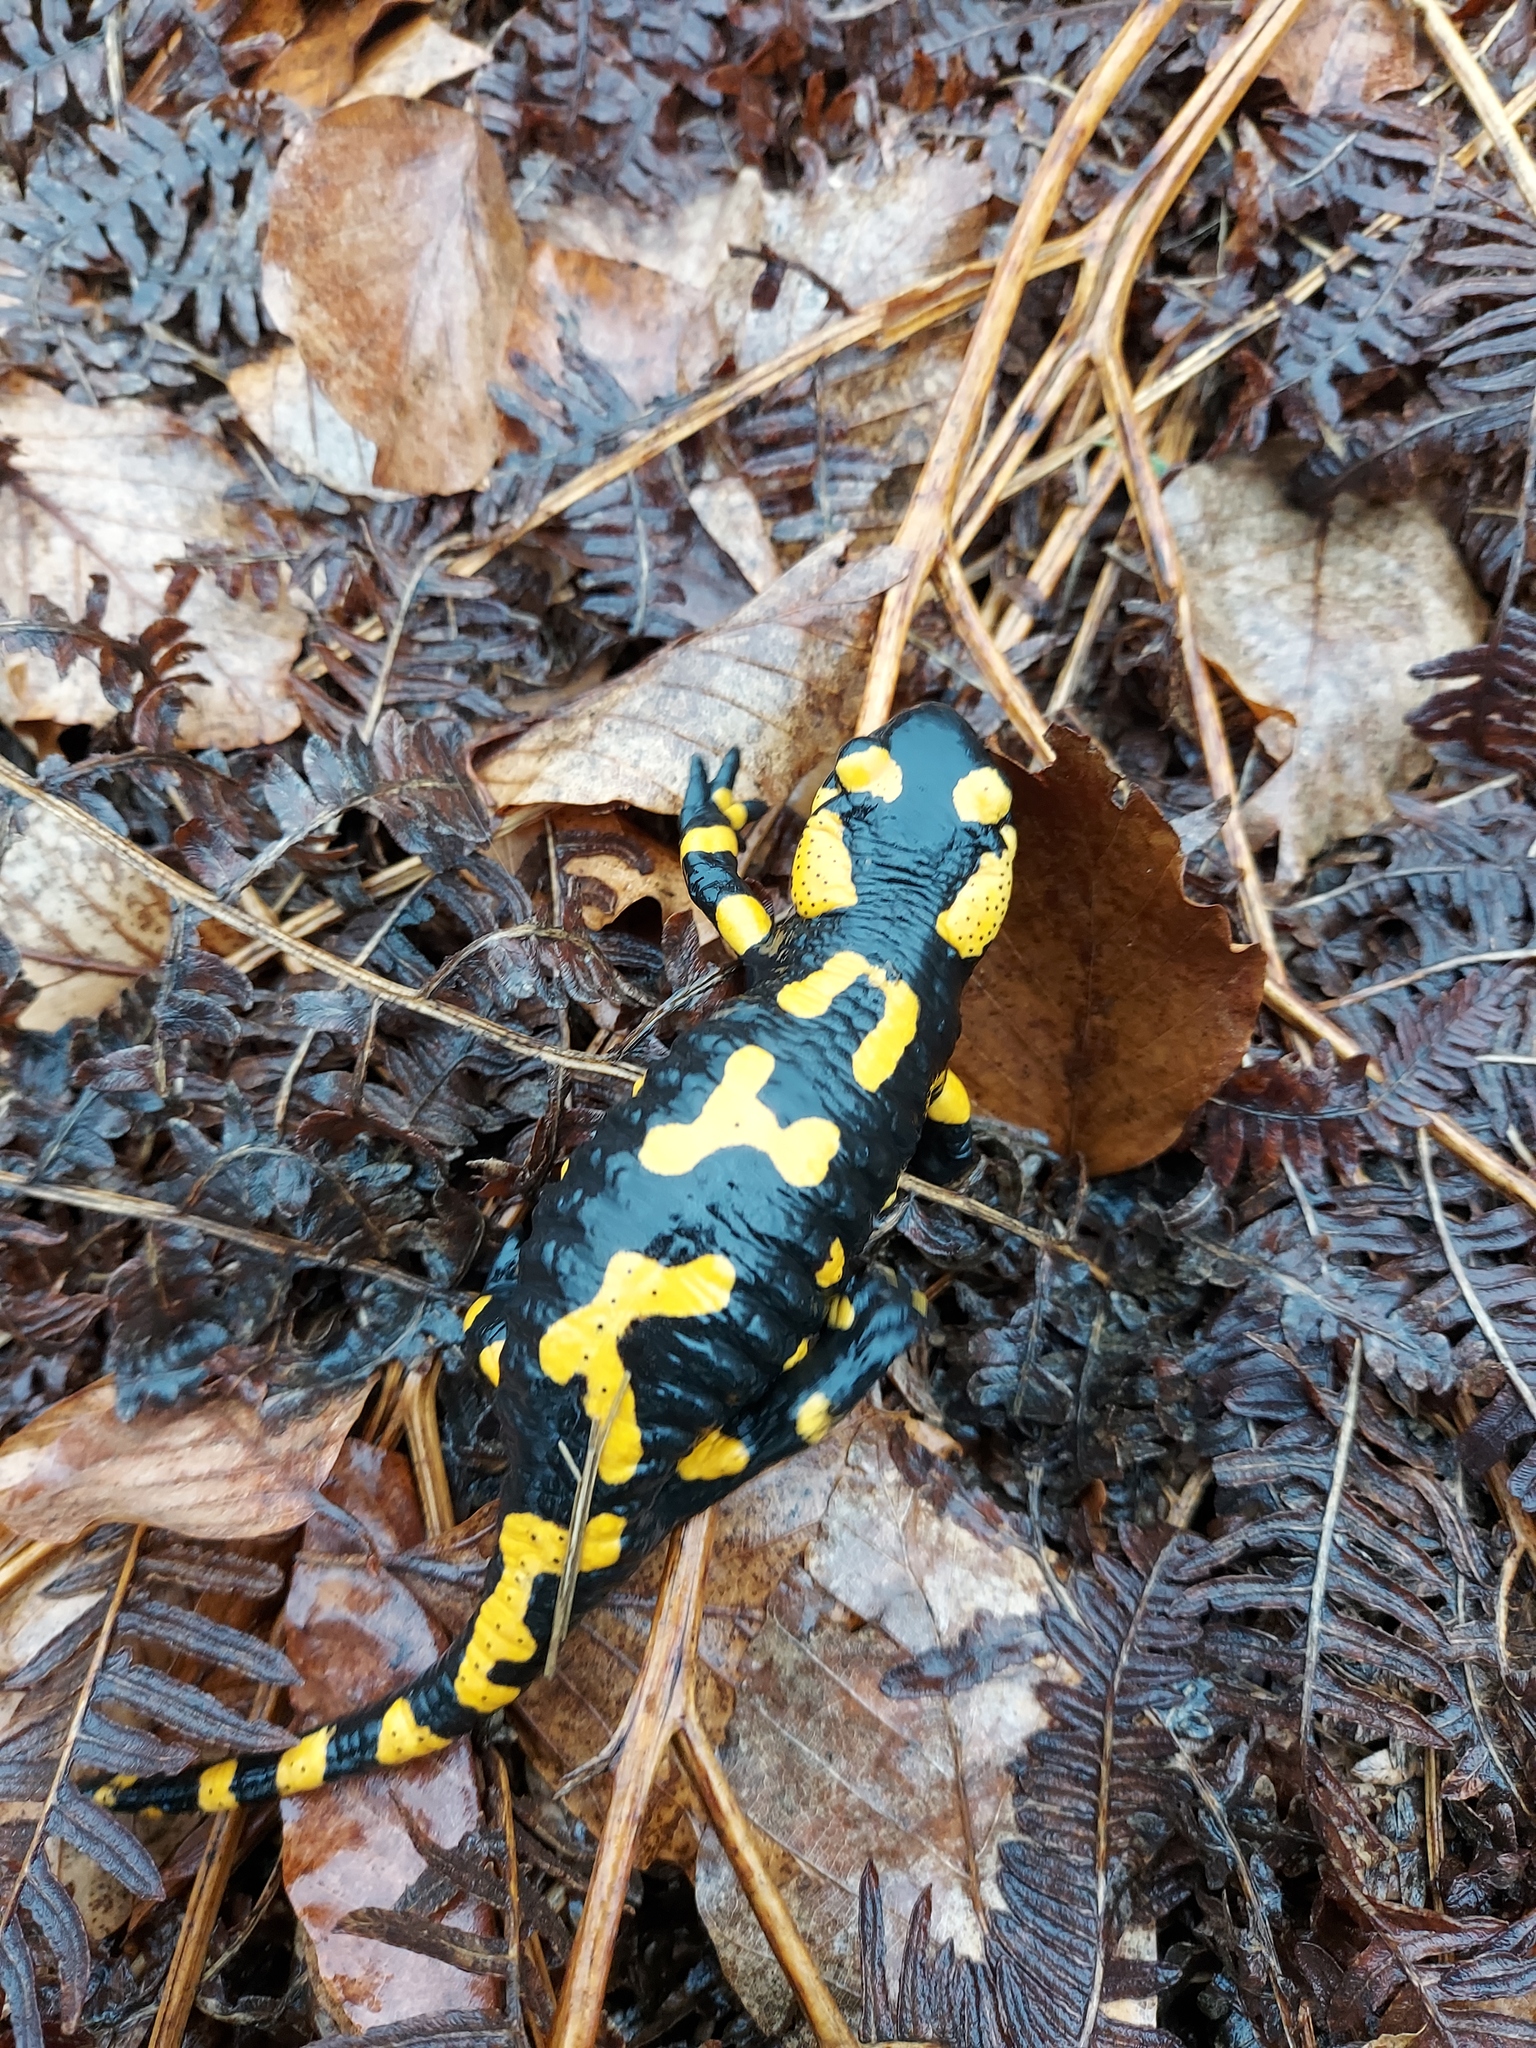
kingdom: Animalia
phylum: Chordata
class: Amphibia
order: Caudata
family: Salamandridae
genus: Salamandra
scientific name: Salamandra salamandra
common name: Fire salamander
